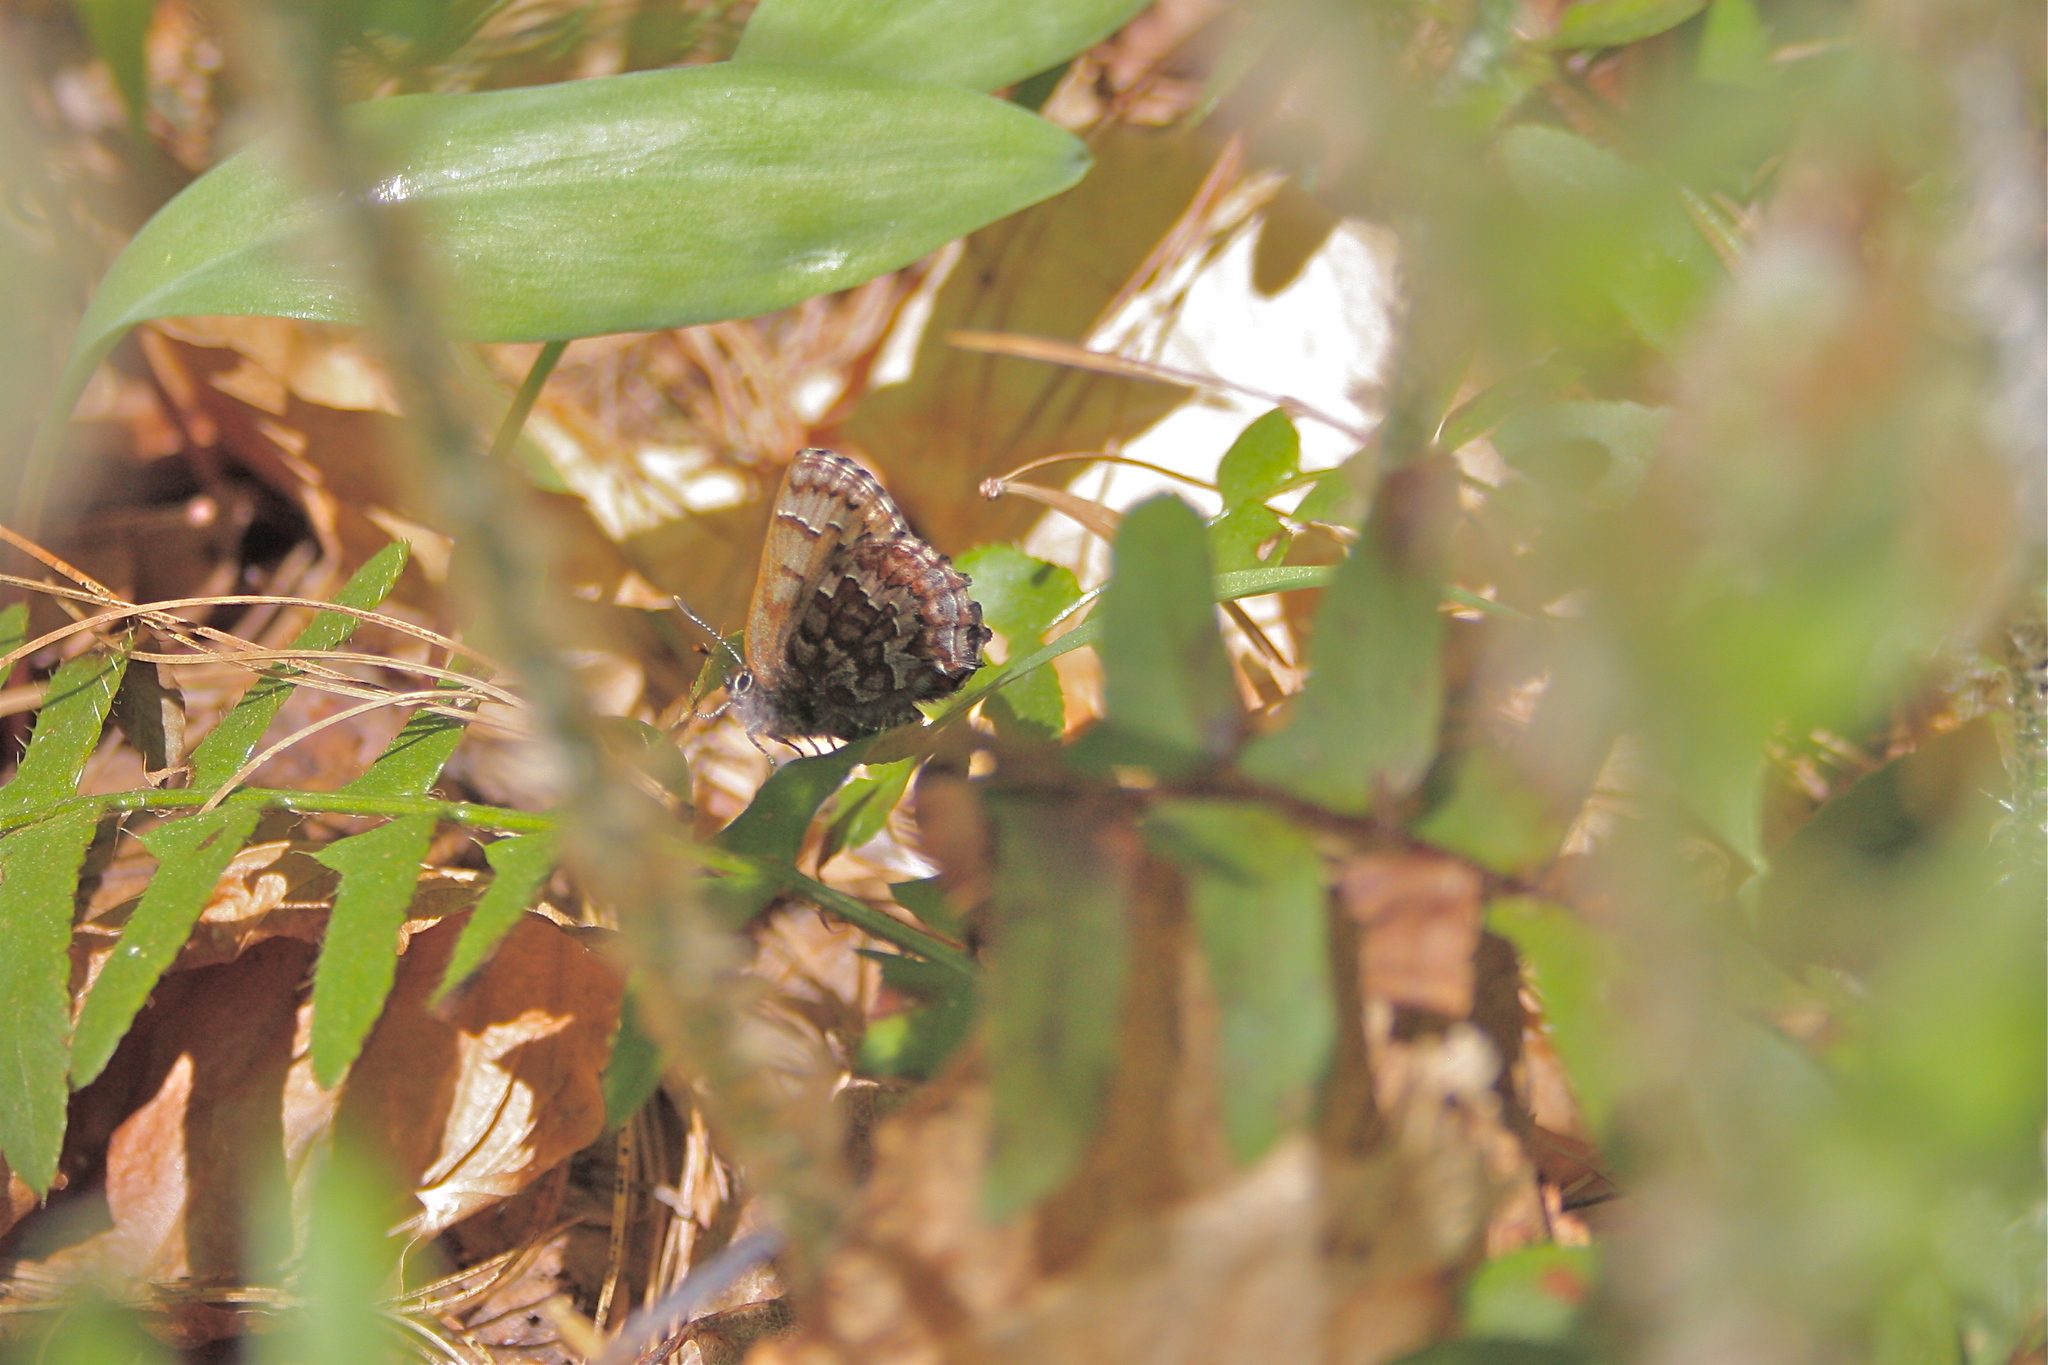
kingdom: Animalia
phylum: Arthropoda
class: Insecta
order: Lepidoptera
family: Lycaenidae
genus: Incisalia
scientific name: Incisalia niphon
